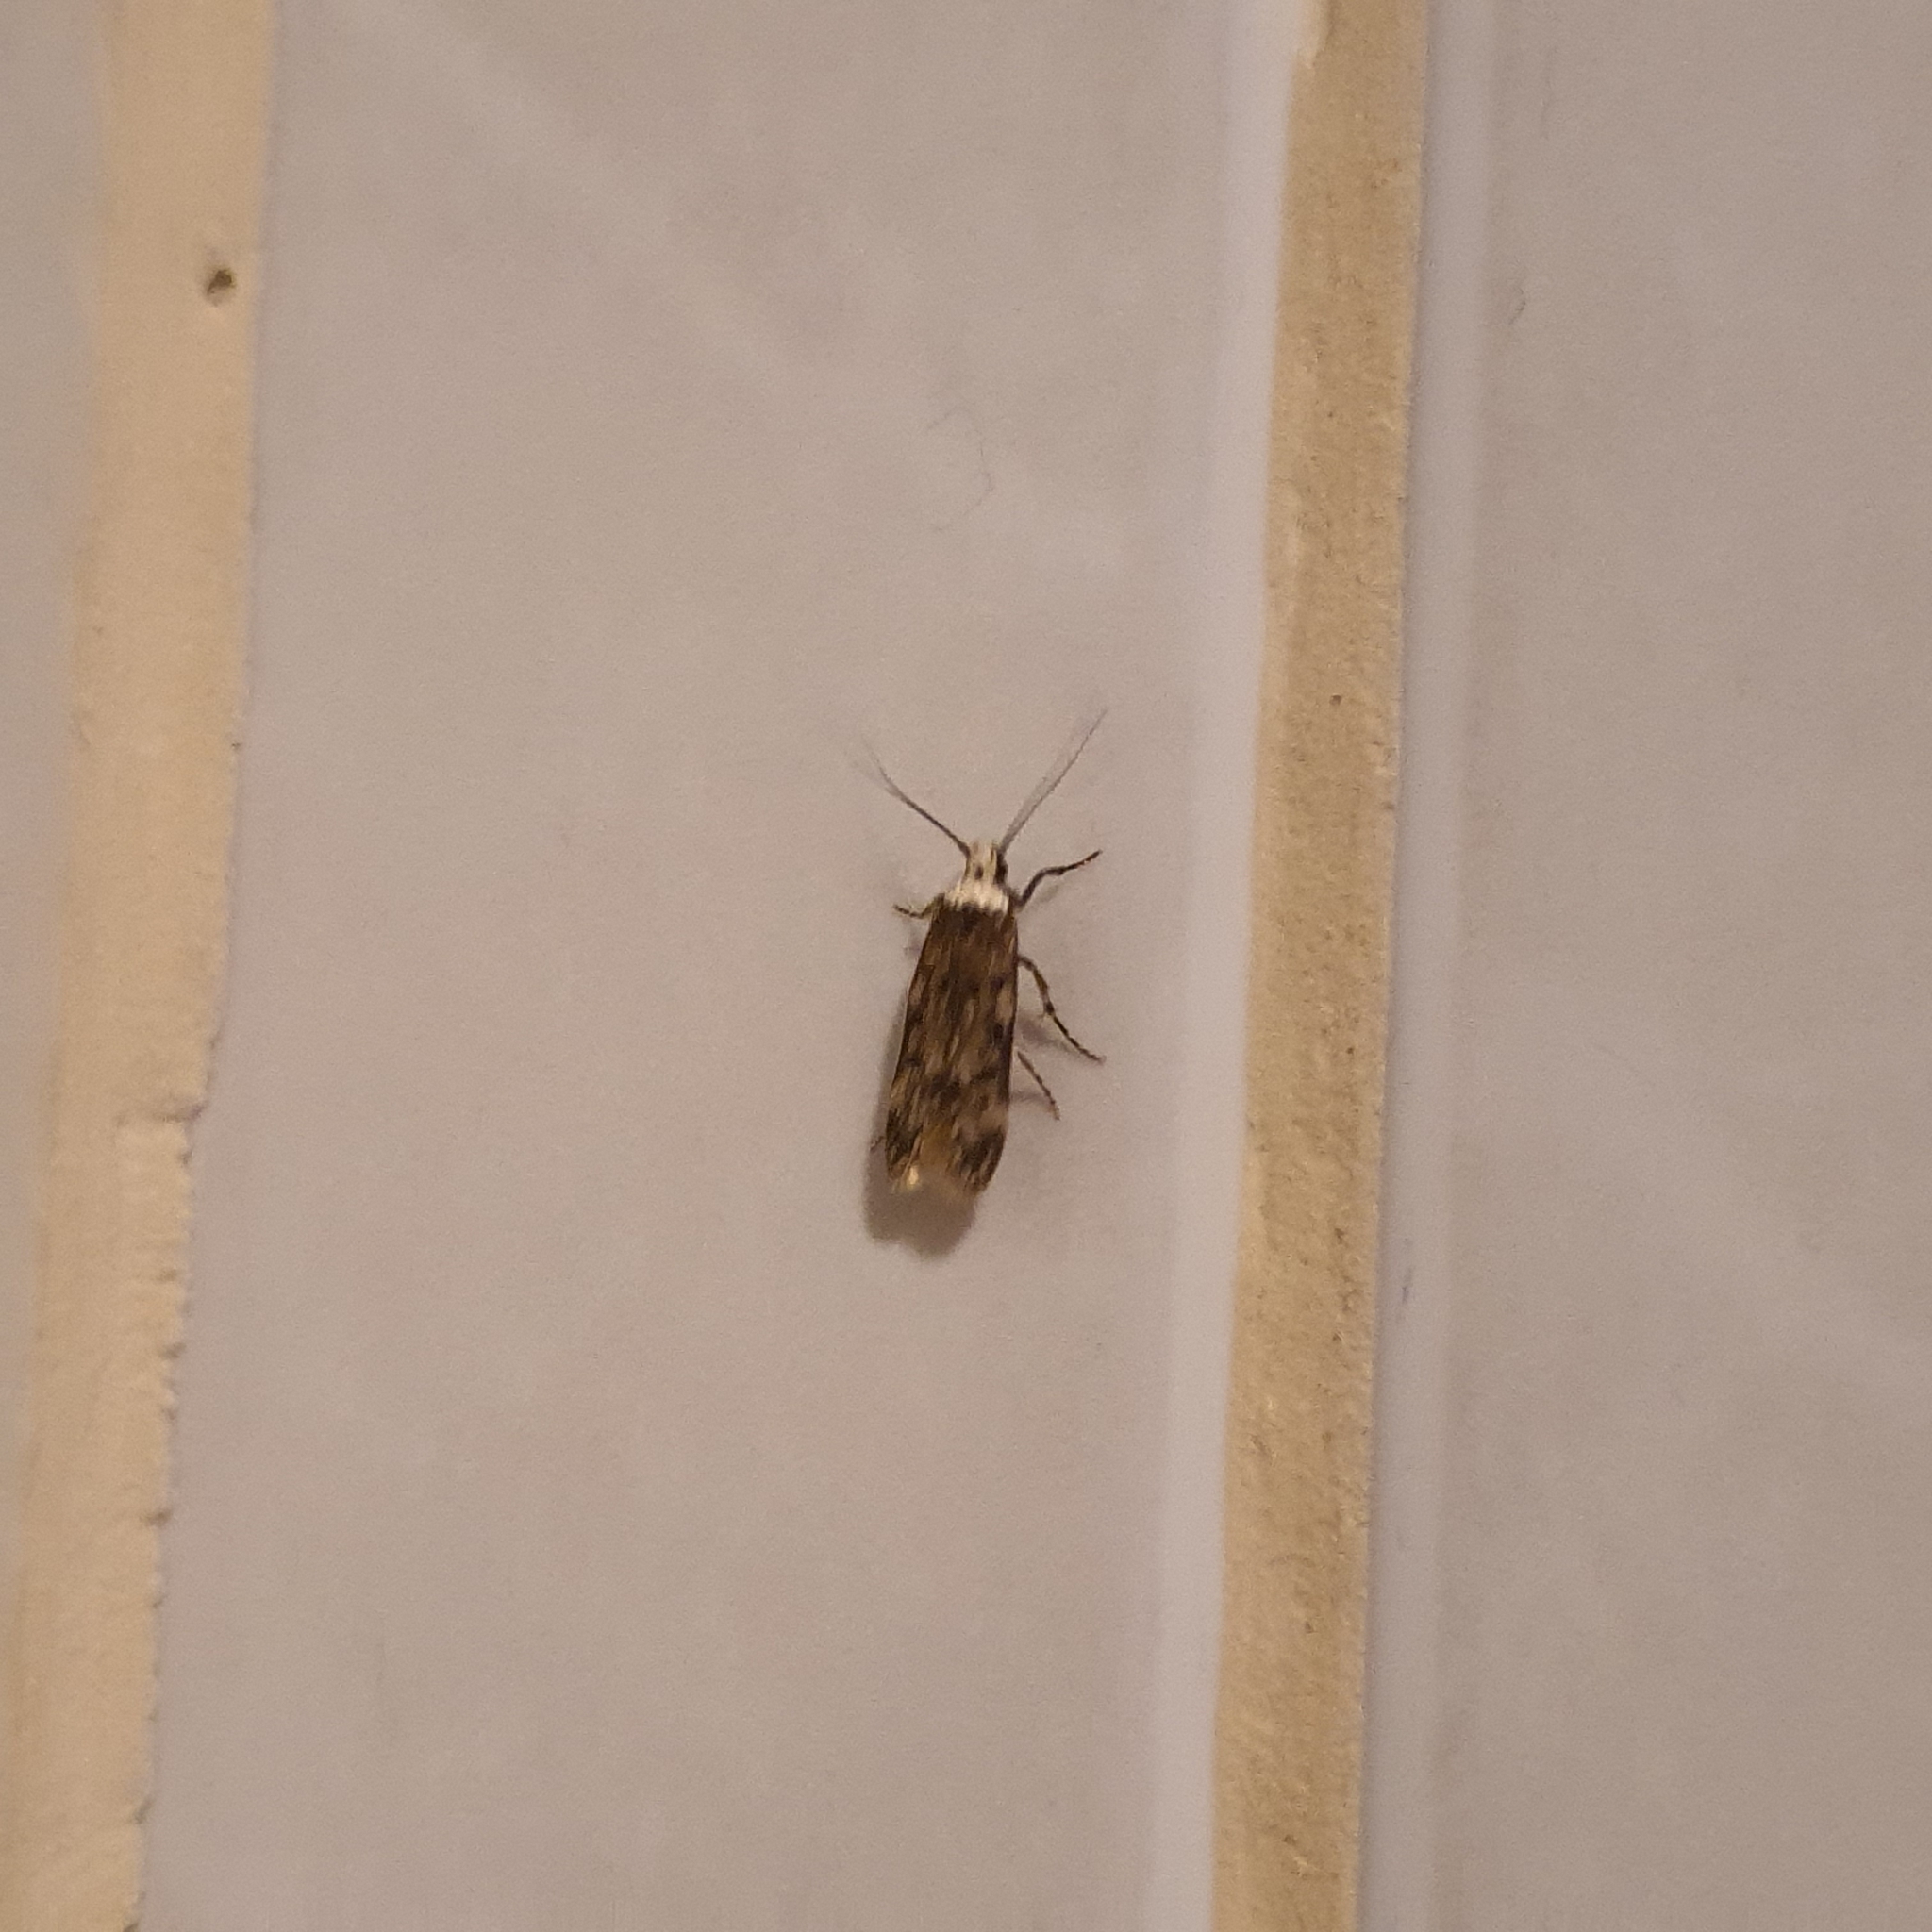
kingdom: Animalia
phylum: Arthropoda
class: Insecta
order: Lepidoptera
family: Oecophoridae
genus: Endrosis
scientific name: Endrosis sarcitrella
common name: White-shouldered house moth
